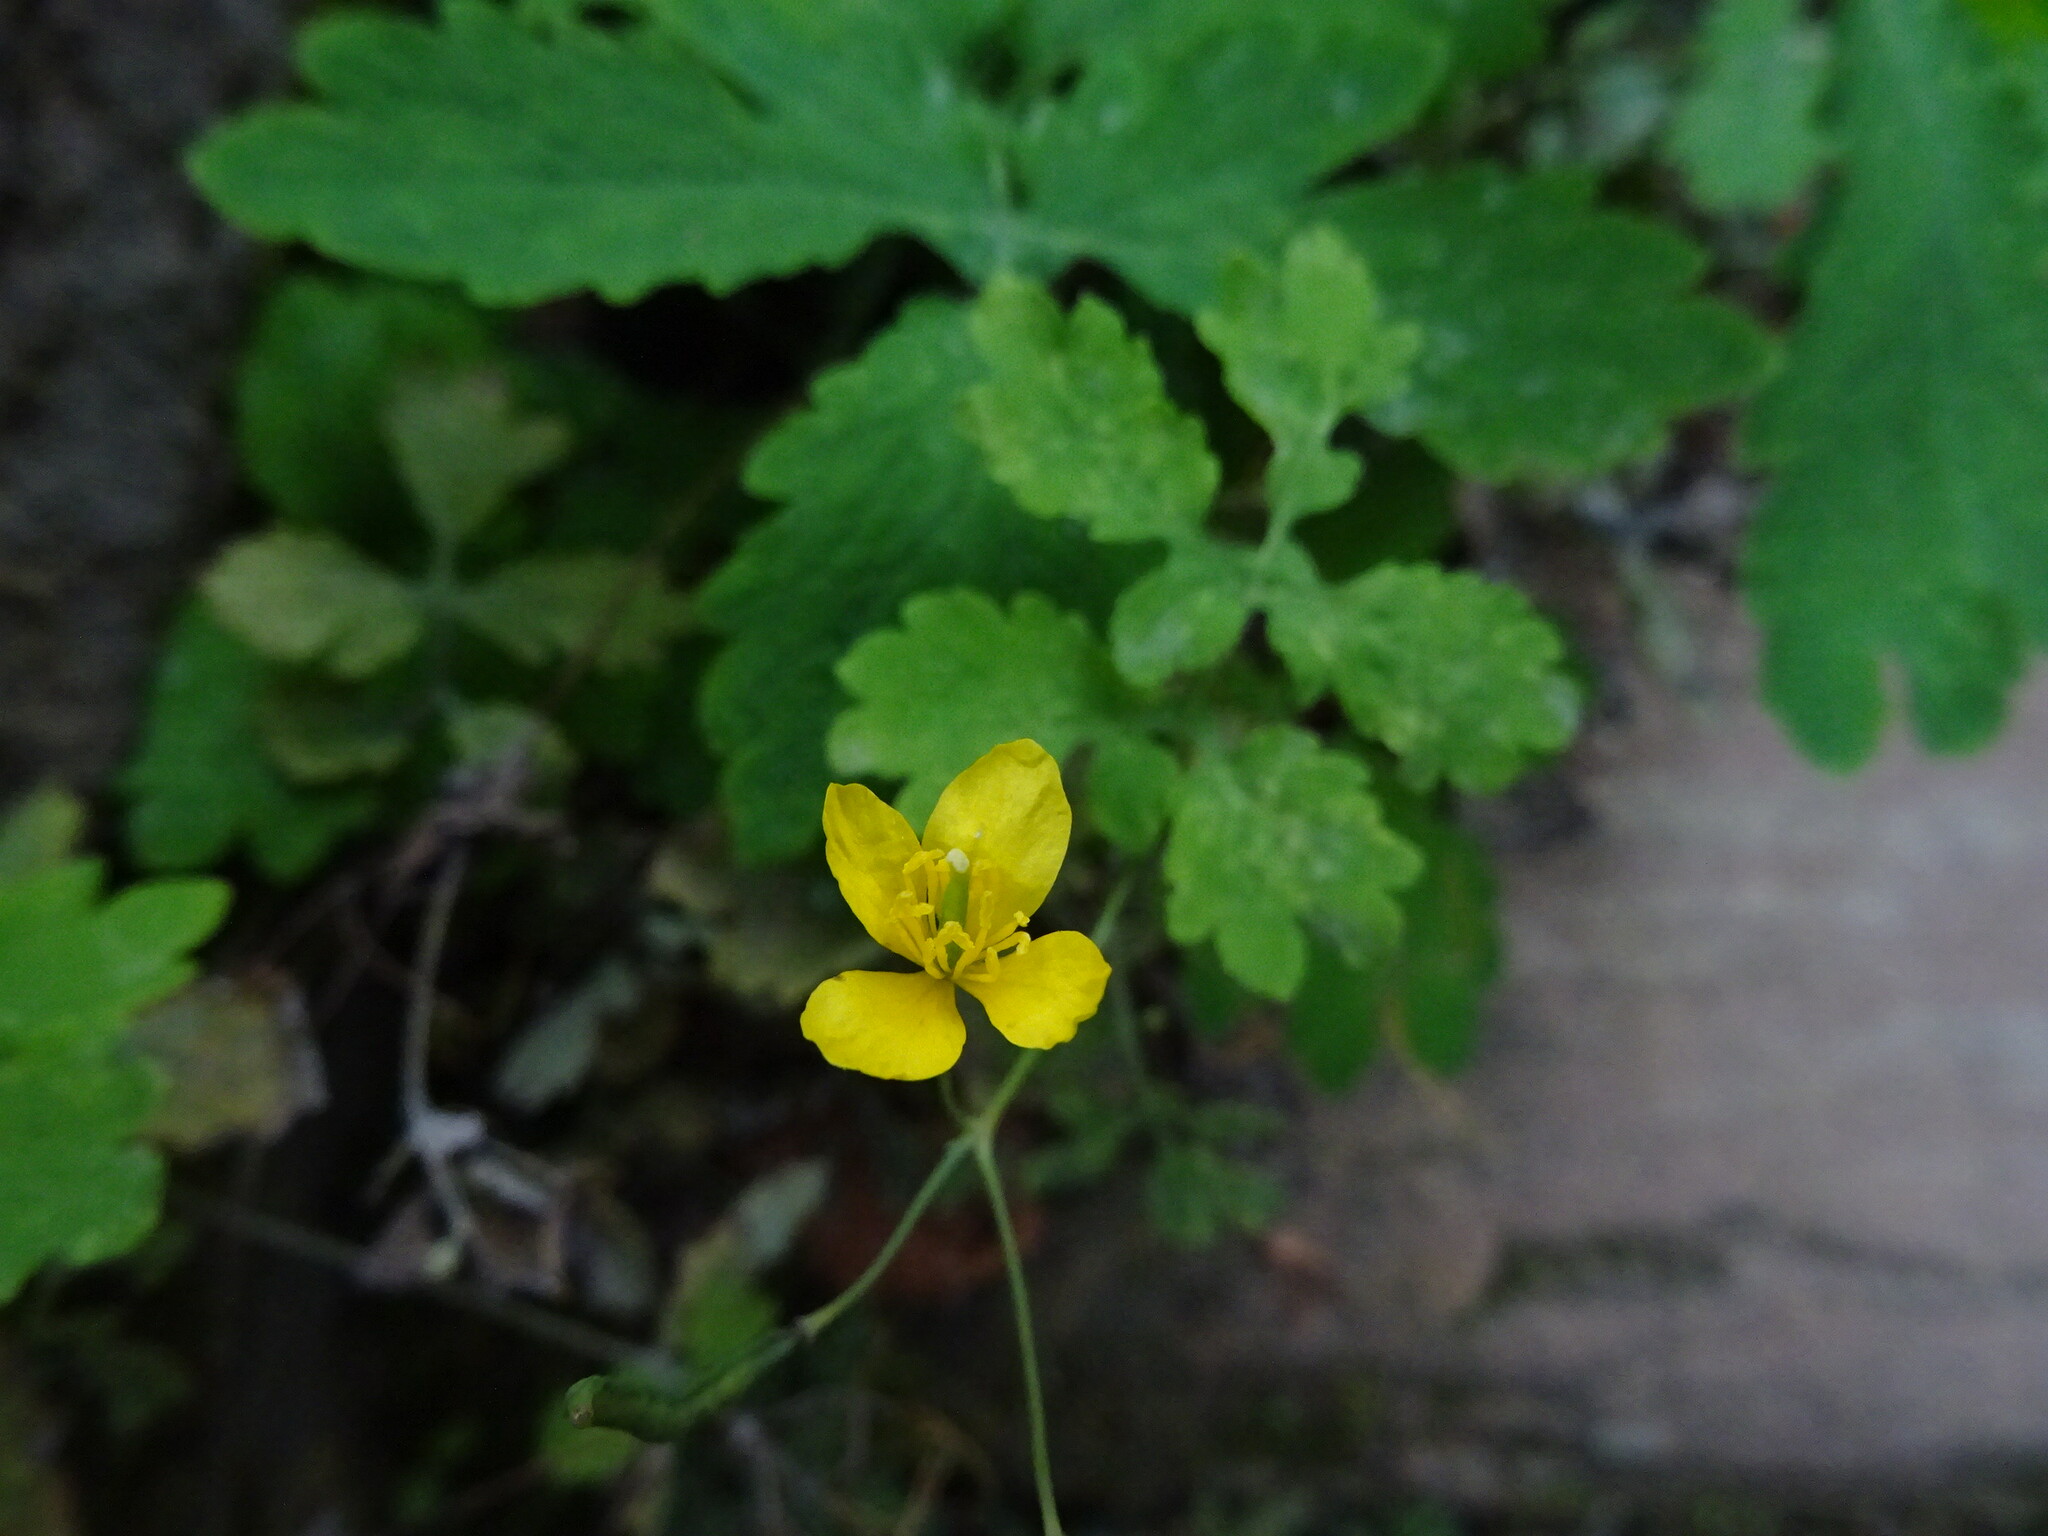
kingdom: Plantae
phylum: Tracheophyta
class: Magnoliopsida
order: Ranunculales
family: Papaveraceae
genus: Chelidonium
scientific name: Chelidonium majus
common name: Greater celandine
